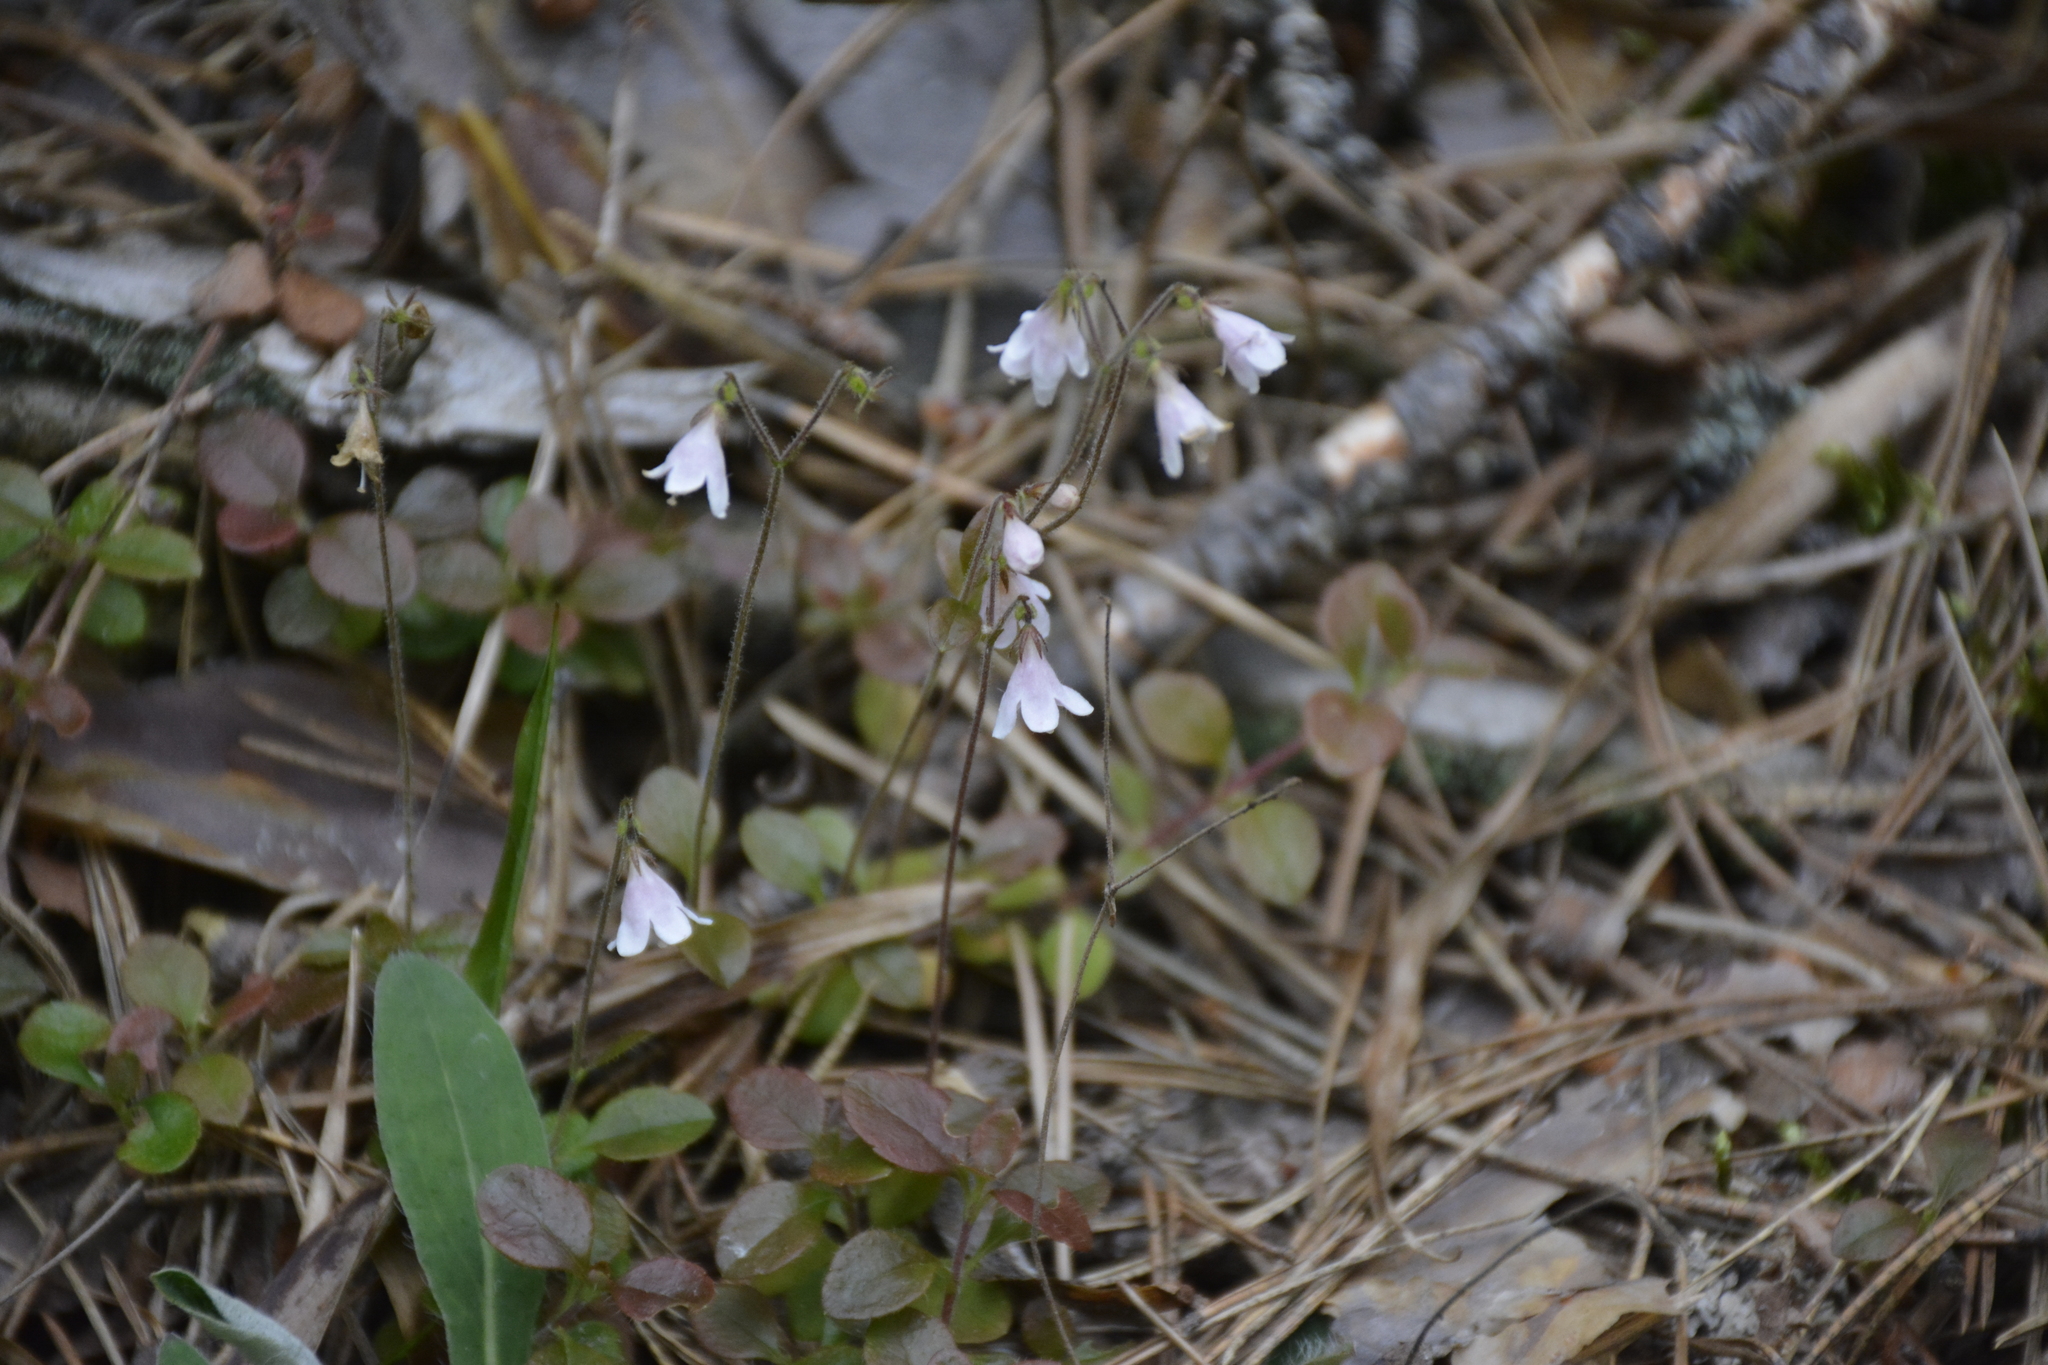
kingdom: Plantae
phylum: Tracheophyta
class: Magnoliopsida
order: Dipsacales
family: Caprifoliaceae
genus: Linnaea
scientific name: Linnaea borealis
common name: Twinflower
